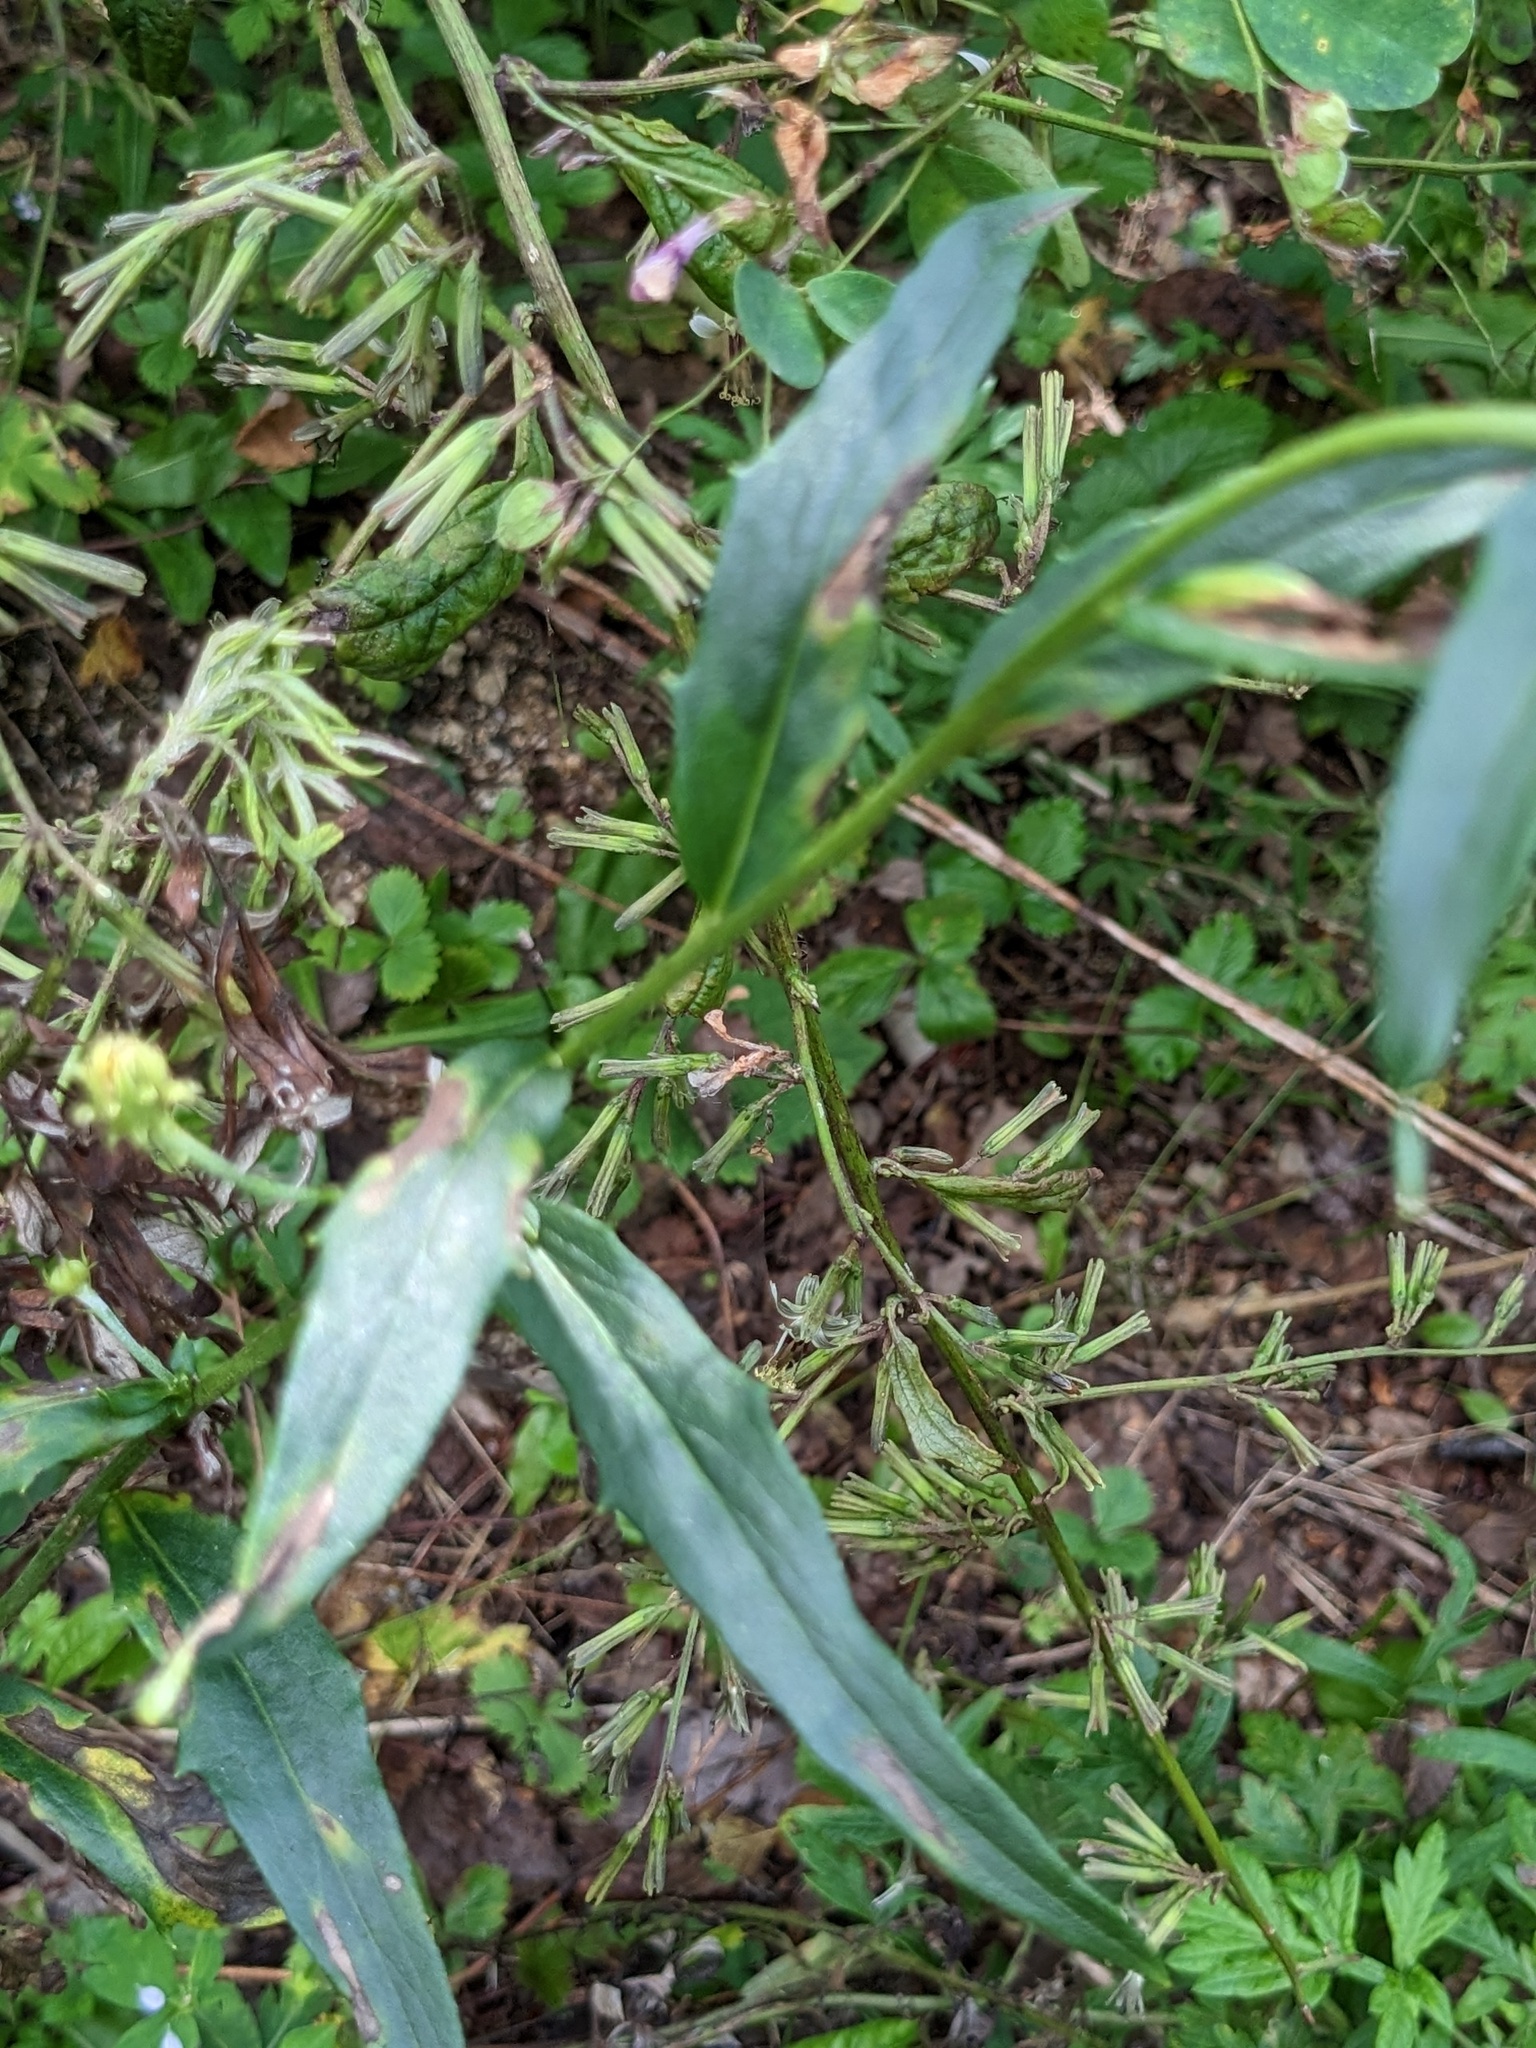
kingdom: Plantae
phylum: Tracheophyta
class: Magnoliopsida
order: Asterales
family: Asteraceae
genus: Hieracium
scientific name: Hieracium umbellatum
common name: Northern hawkweed
